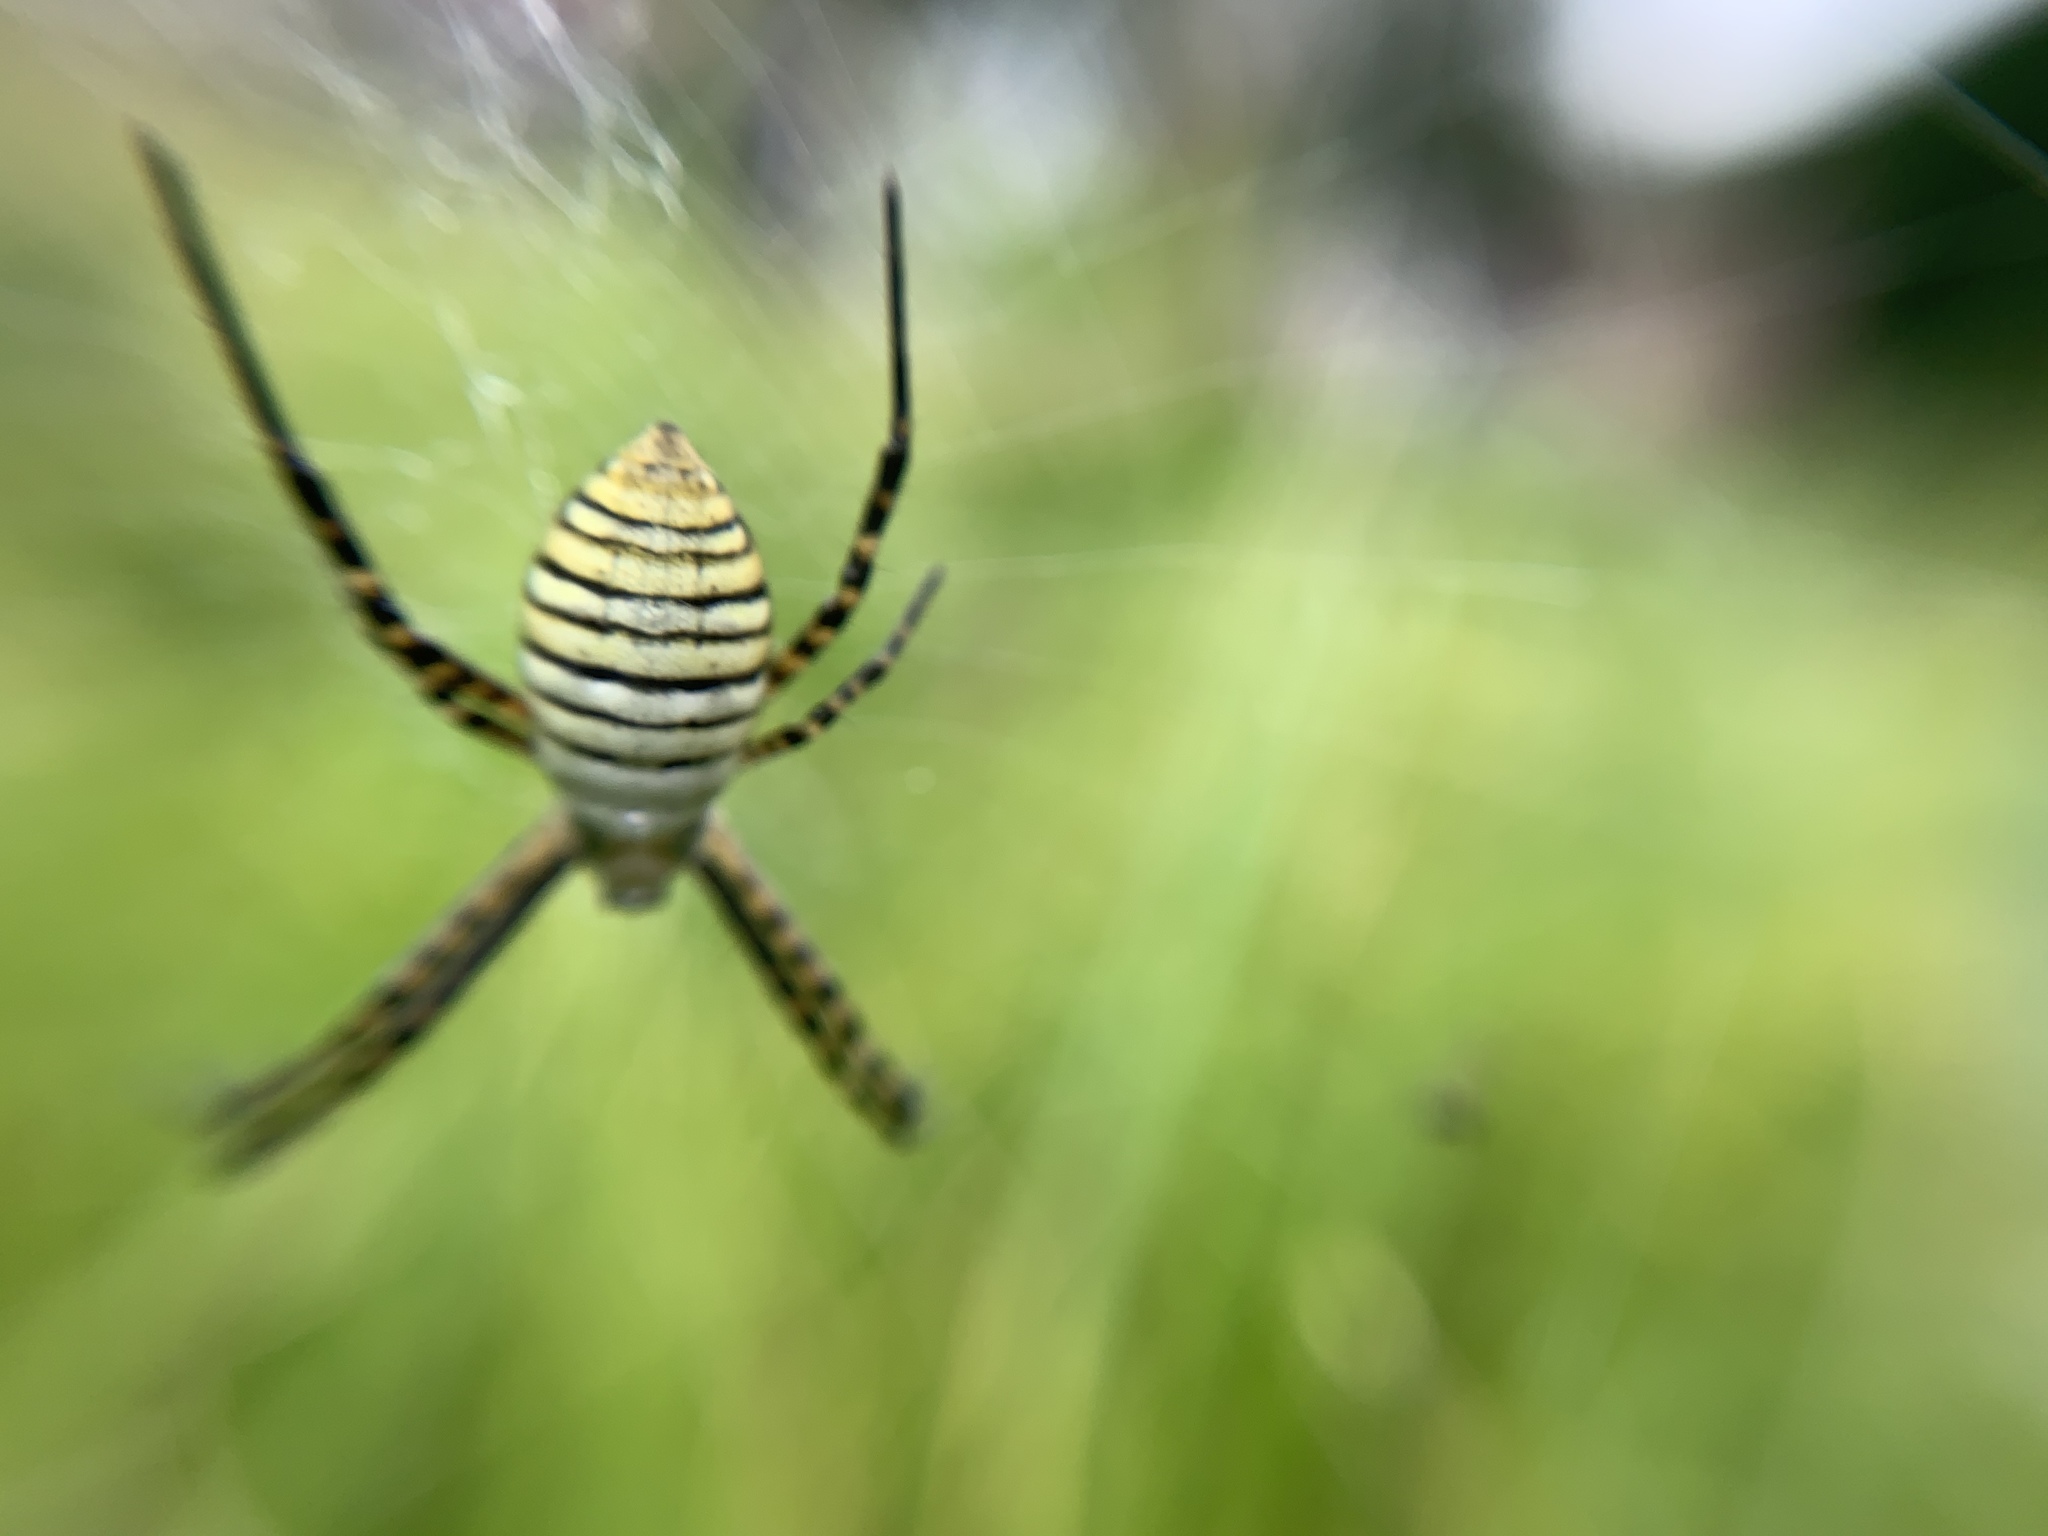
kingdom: Animalia
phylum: Arthropoda
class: Arachnida
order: Araneae
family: Araneidae
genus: Argiope
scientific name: Argiope trifasciata
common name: Banded garden spider
